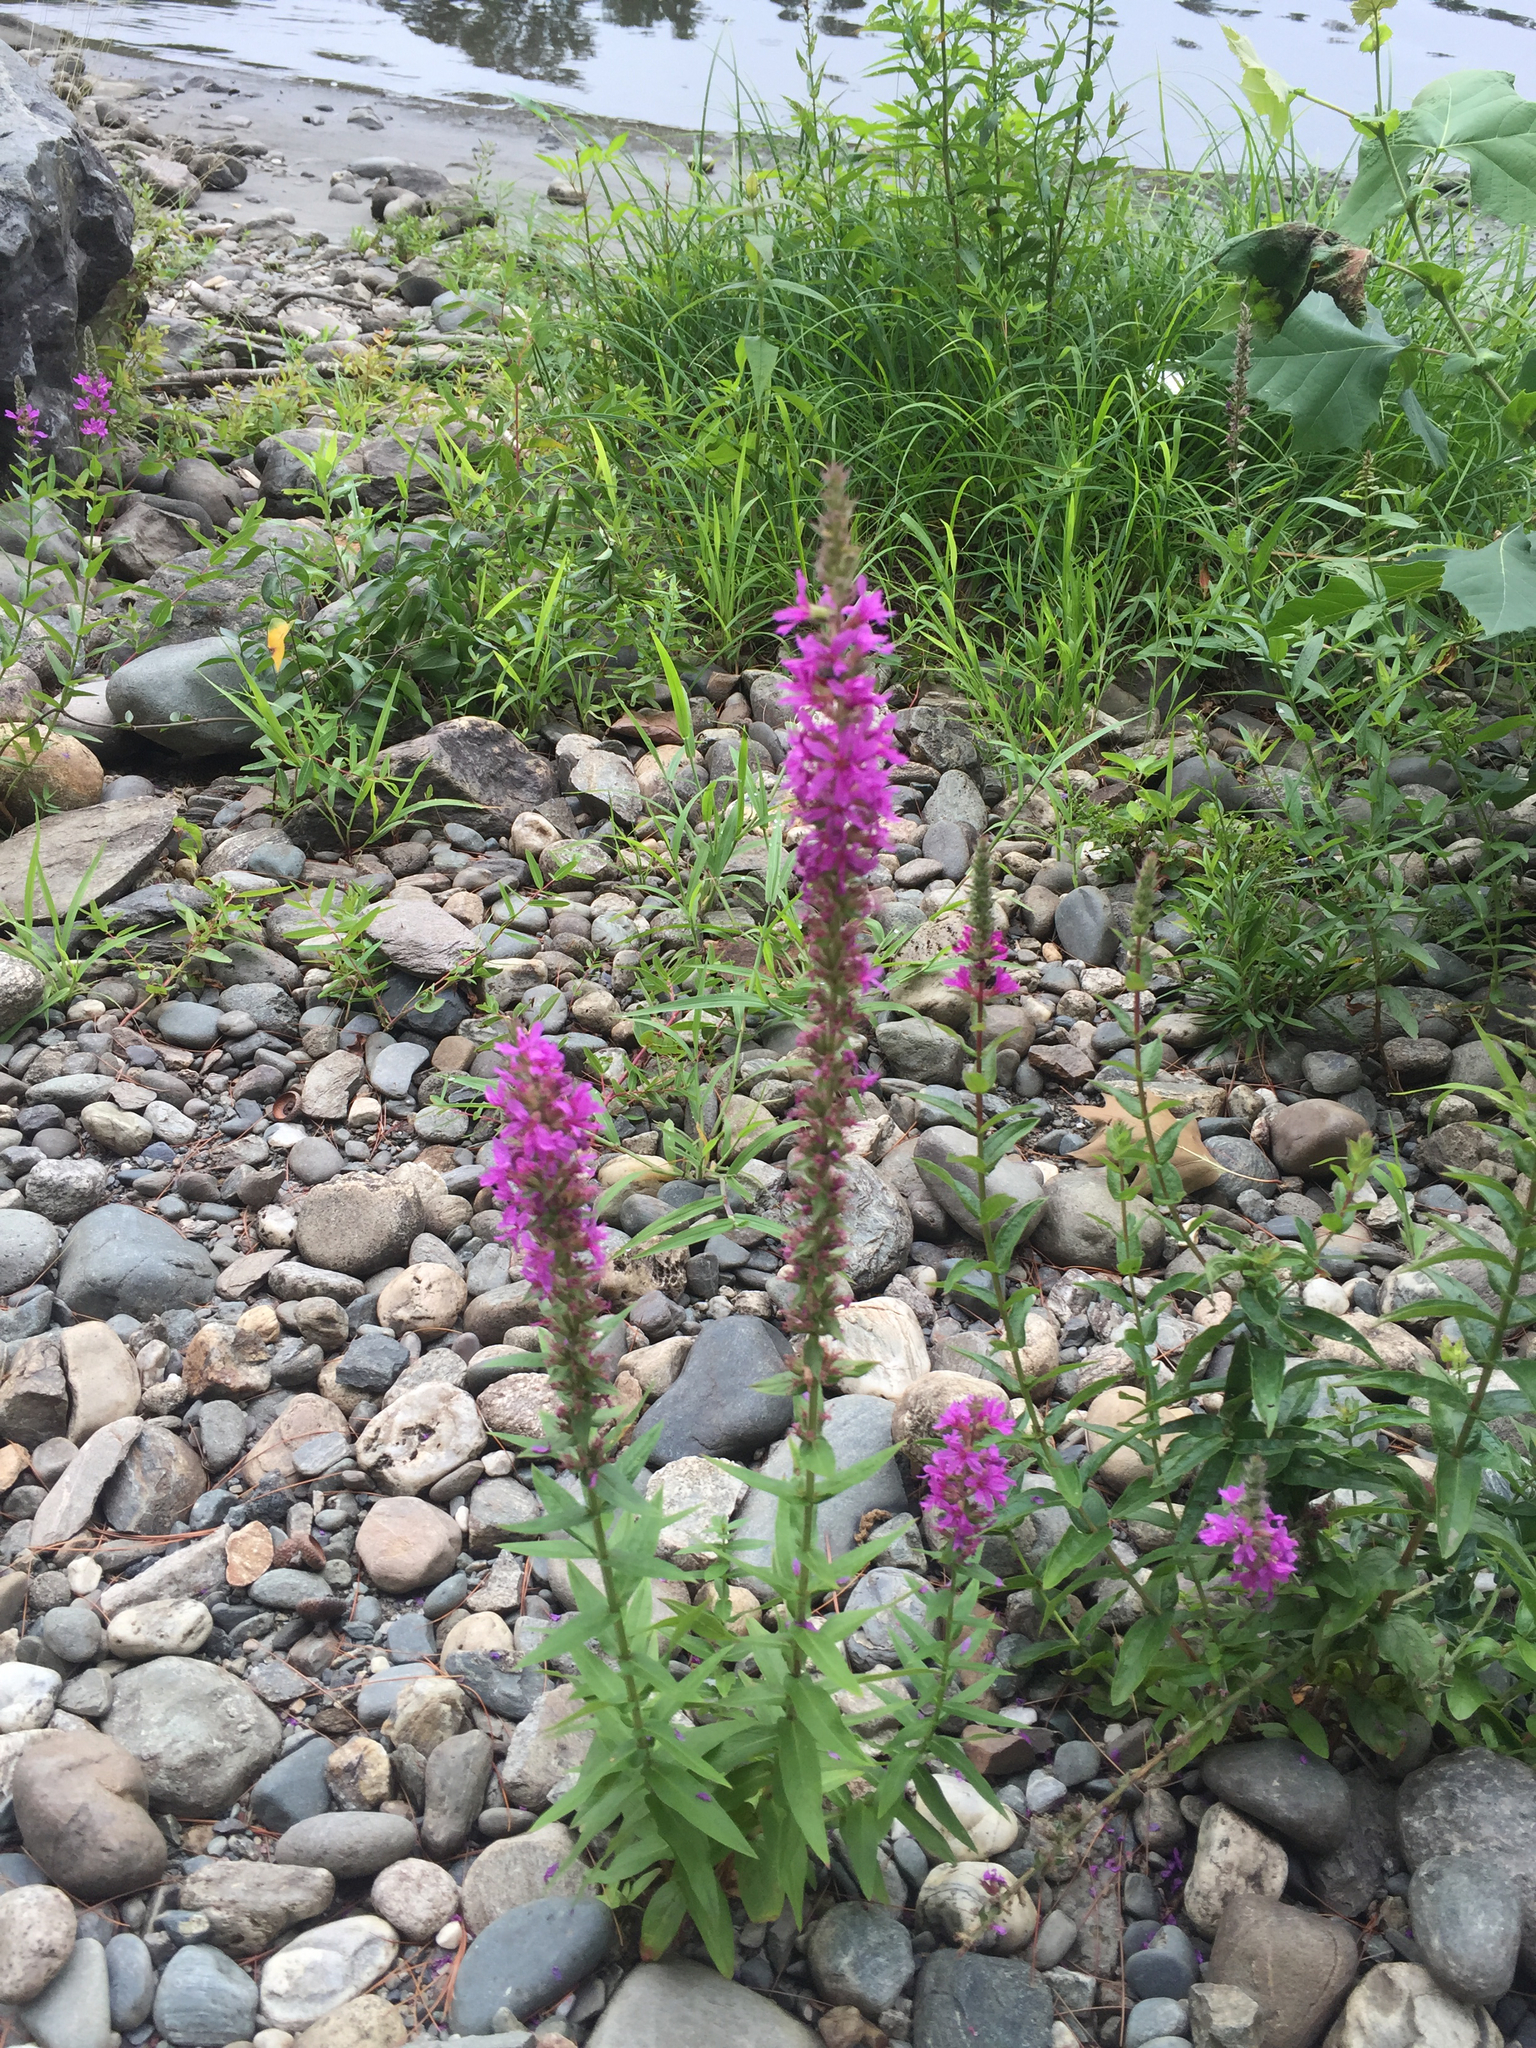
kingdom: Plantae
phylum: Tracheophyta
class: Magnoliopsida
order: Myrtales
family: Lythraceae
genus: Lythrum
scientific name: Lythrum salicaria
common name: Purple loosestrife
